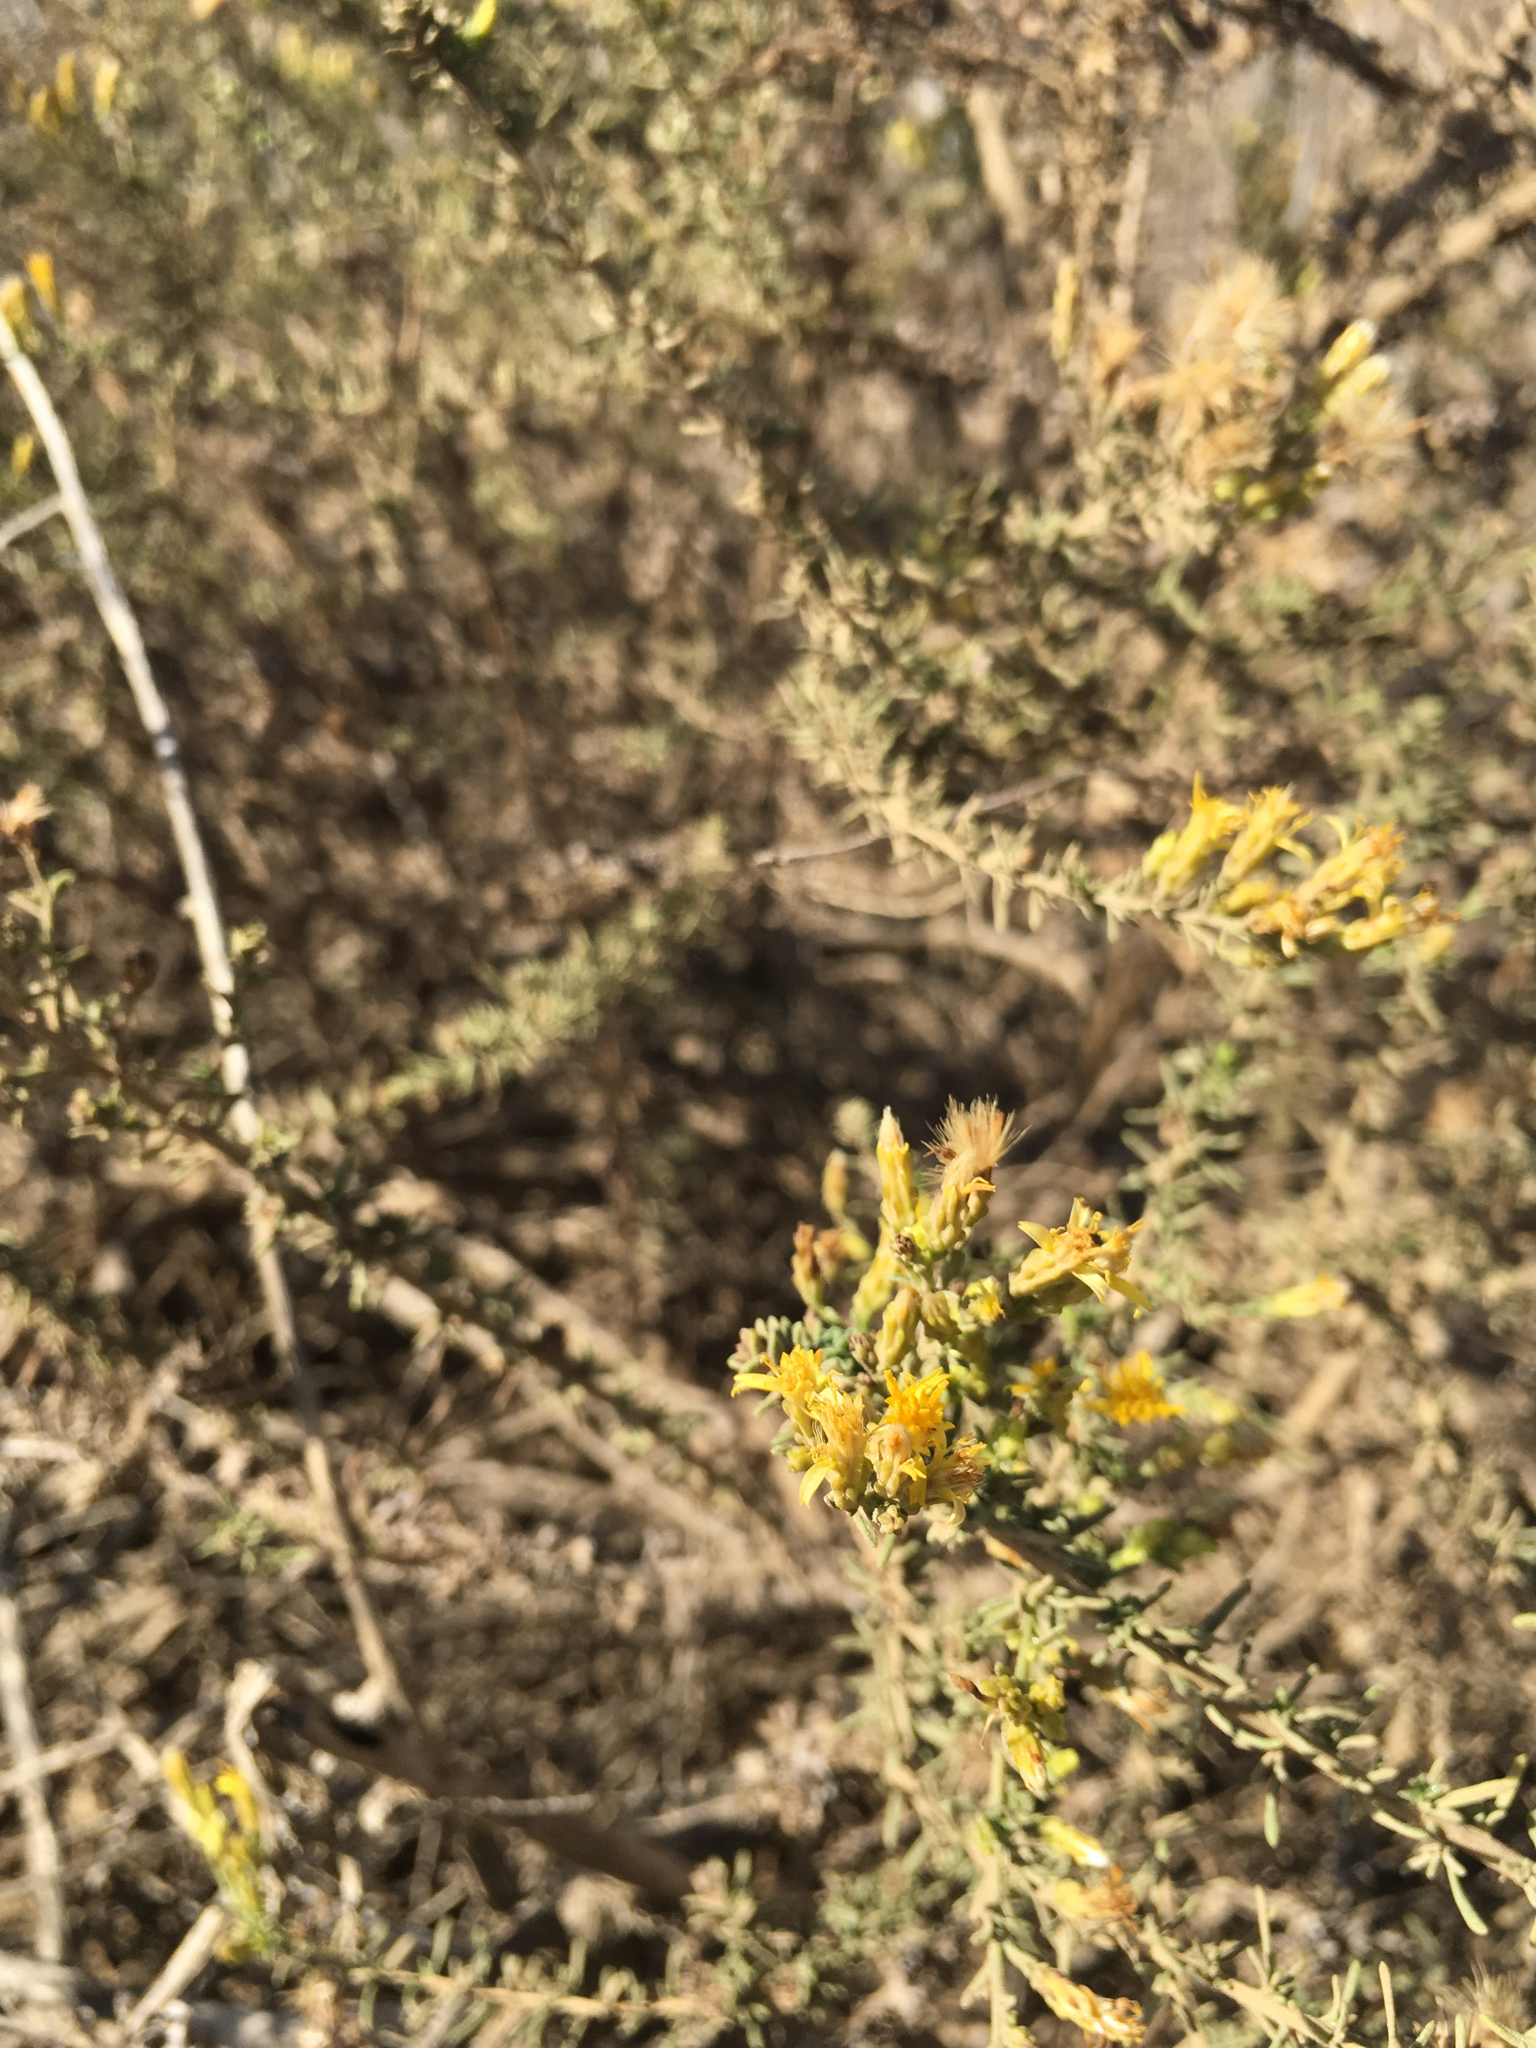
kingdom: Plantae
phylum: Tracheophyta
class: Magnoliopsida
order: Asterales
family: Asteraceae
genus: Ericameria
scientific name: Ericameria palmeri
